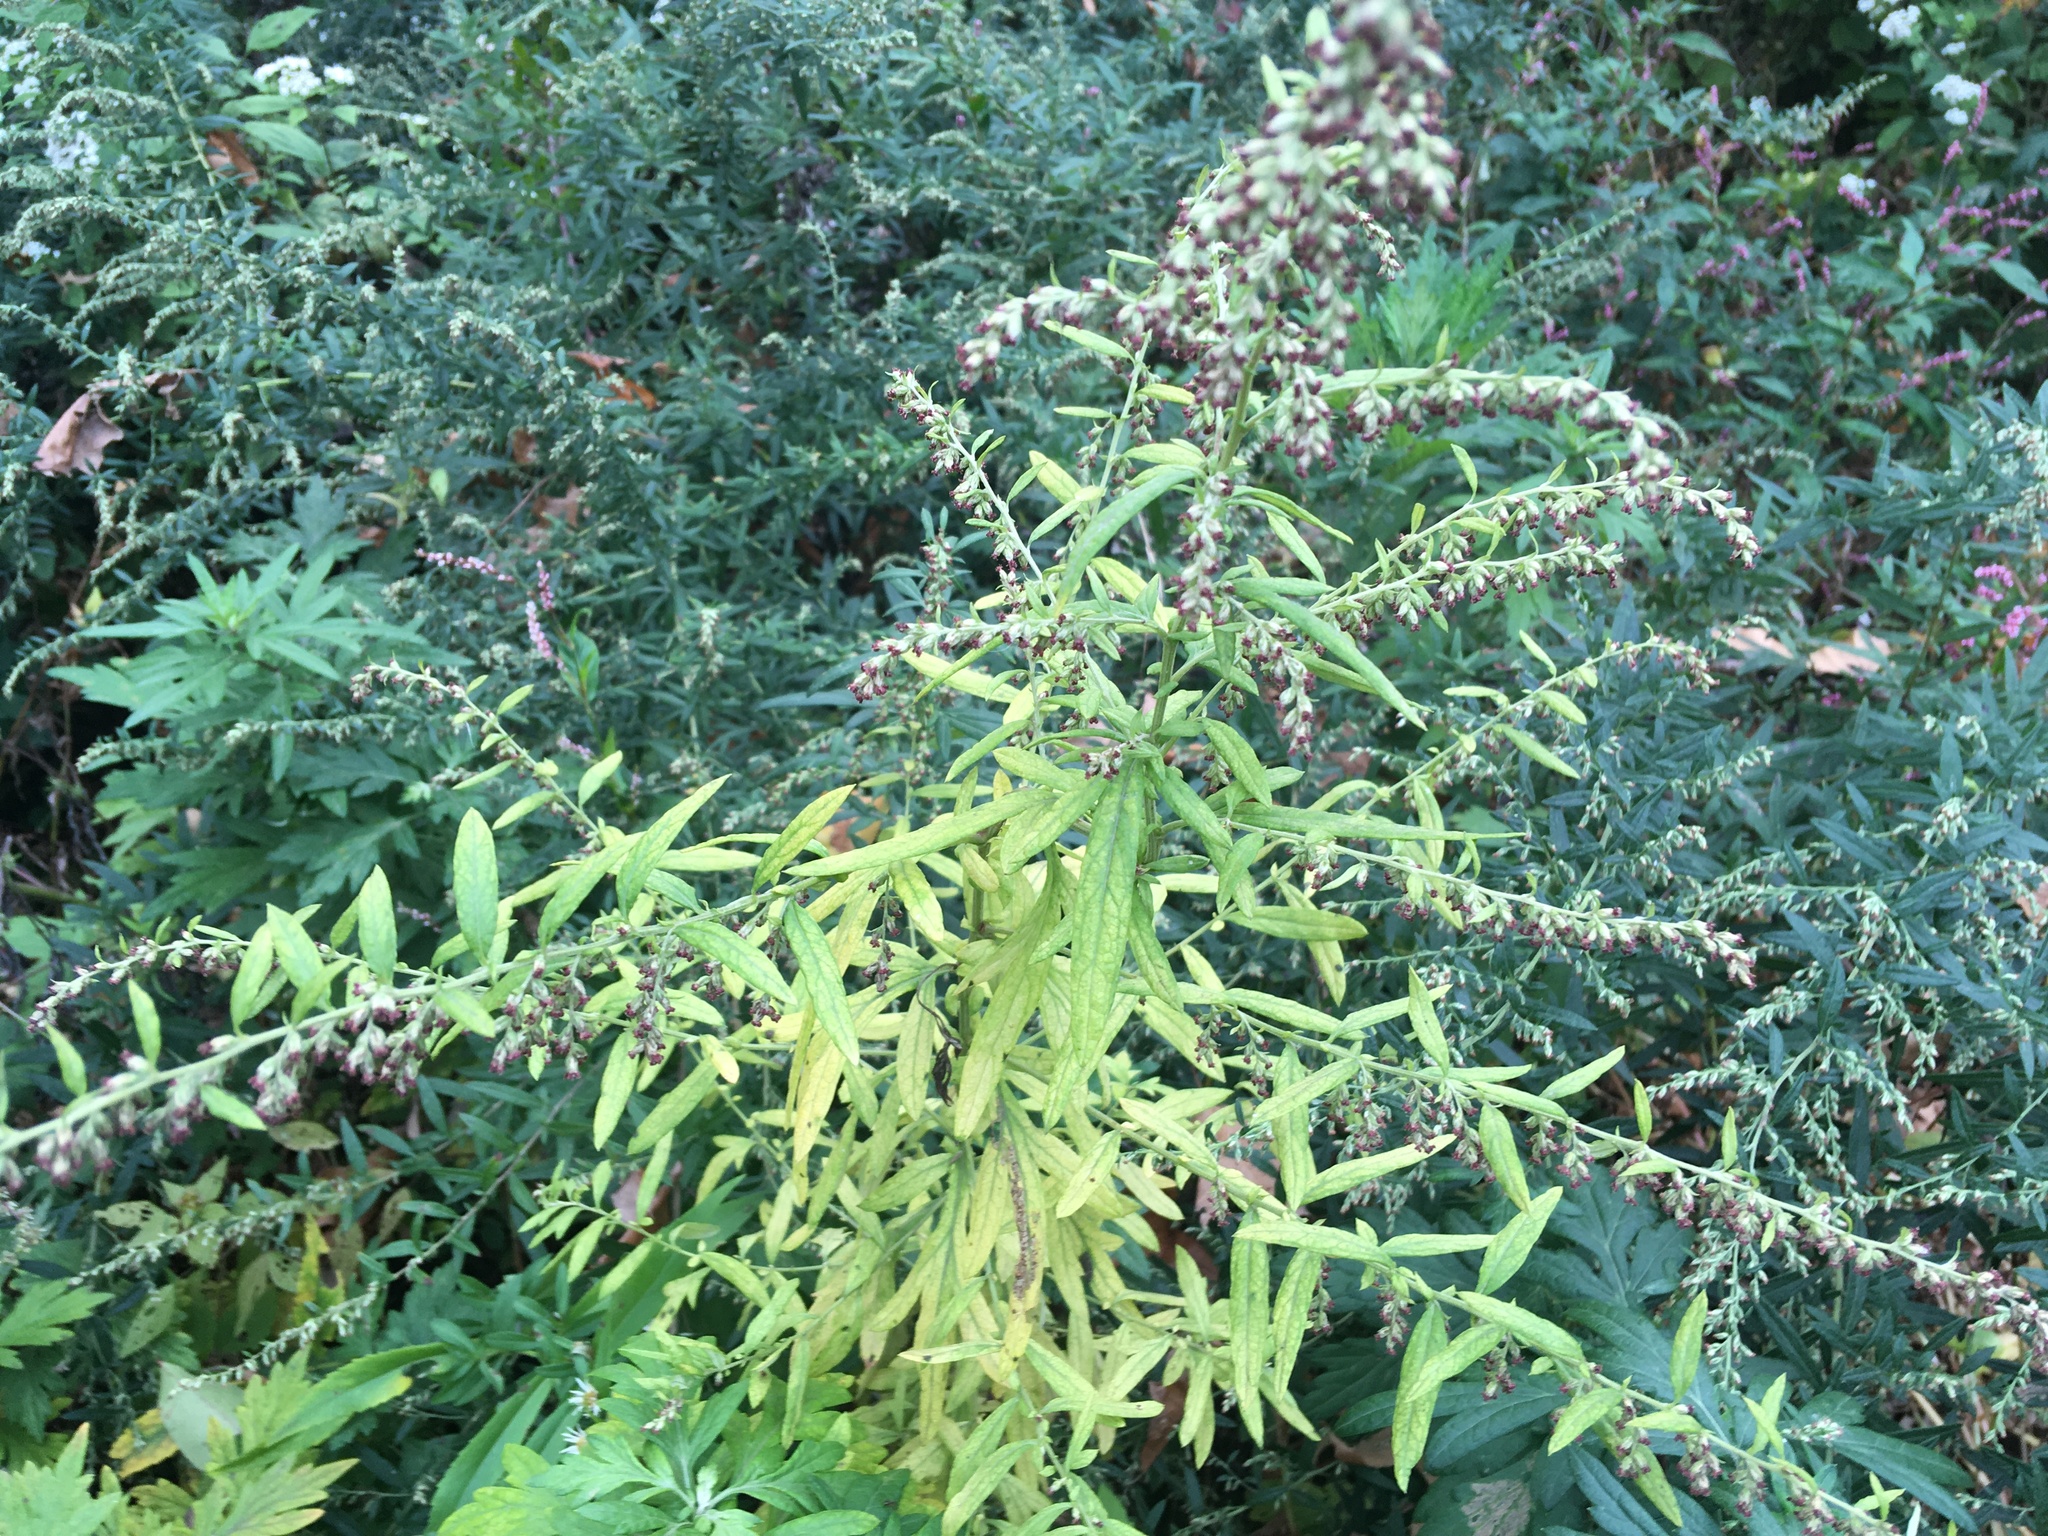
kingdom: Plantae
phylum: Tracheophyta
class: Magnoliopsida
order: Asterales
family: Asteraceae
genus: Artemisia
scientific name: Artemisia vulgaris
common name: Mugwort
